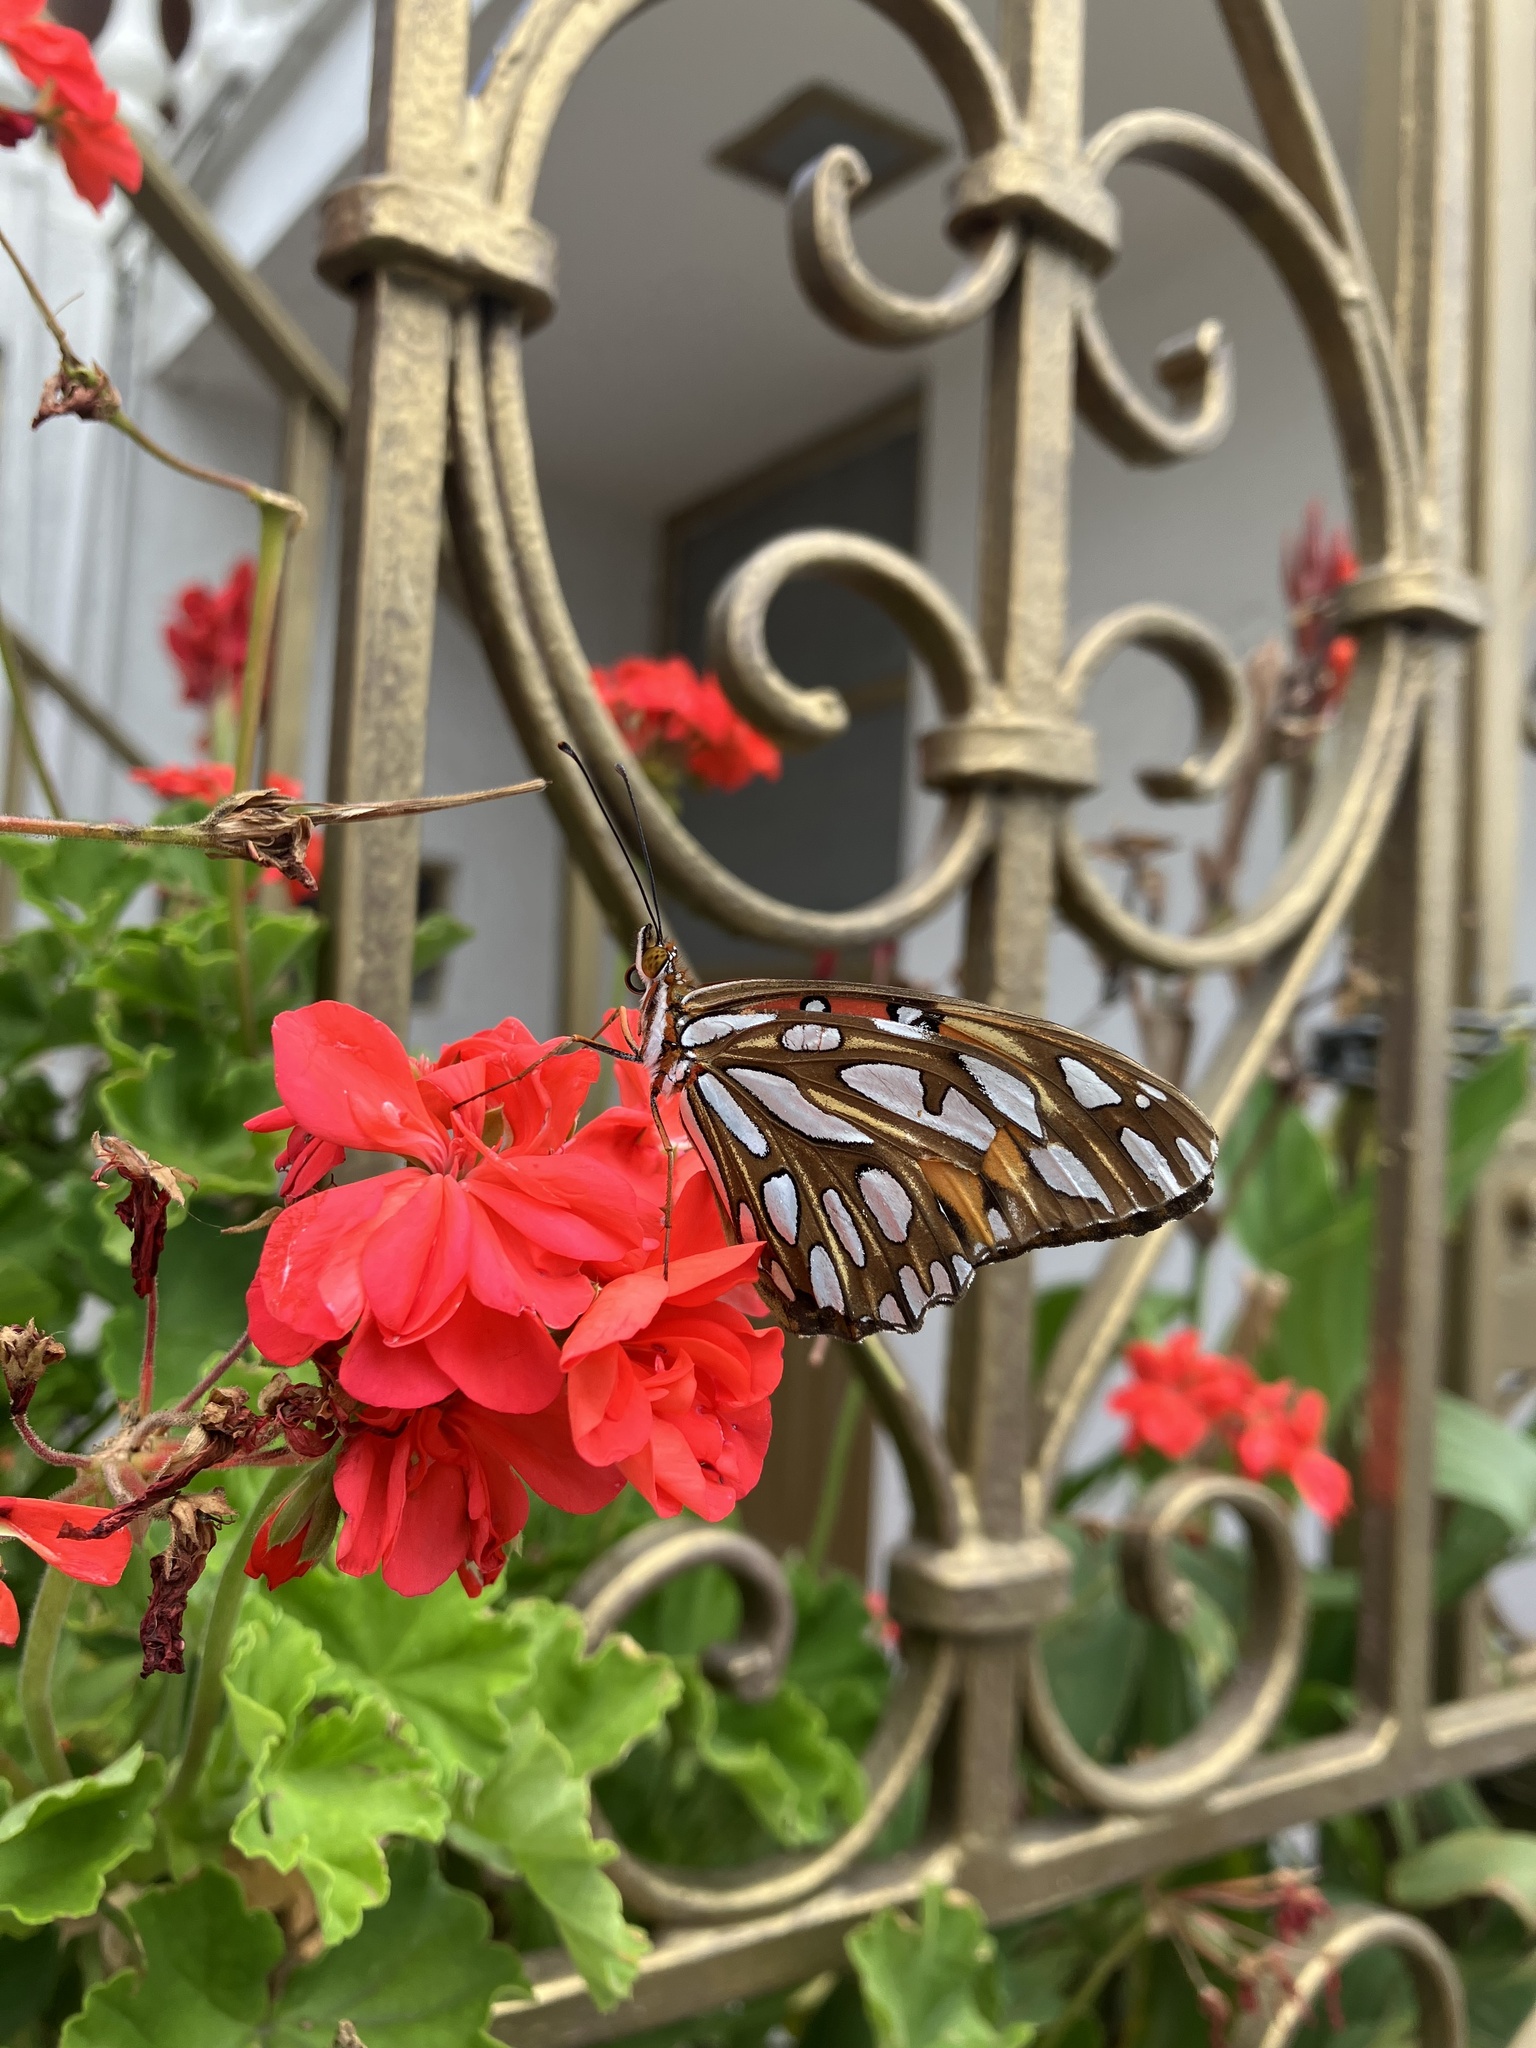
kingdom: Animalia
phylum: Arthropoda
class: Insecta
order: Lepidoptera
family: Nymphalidae
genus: Dione
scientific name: Dione vanillae
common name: Gulf fritillary
